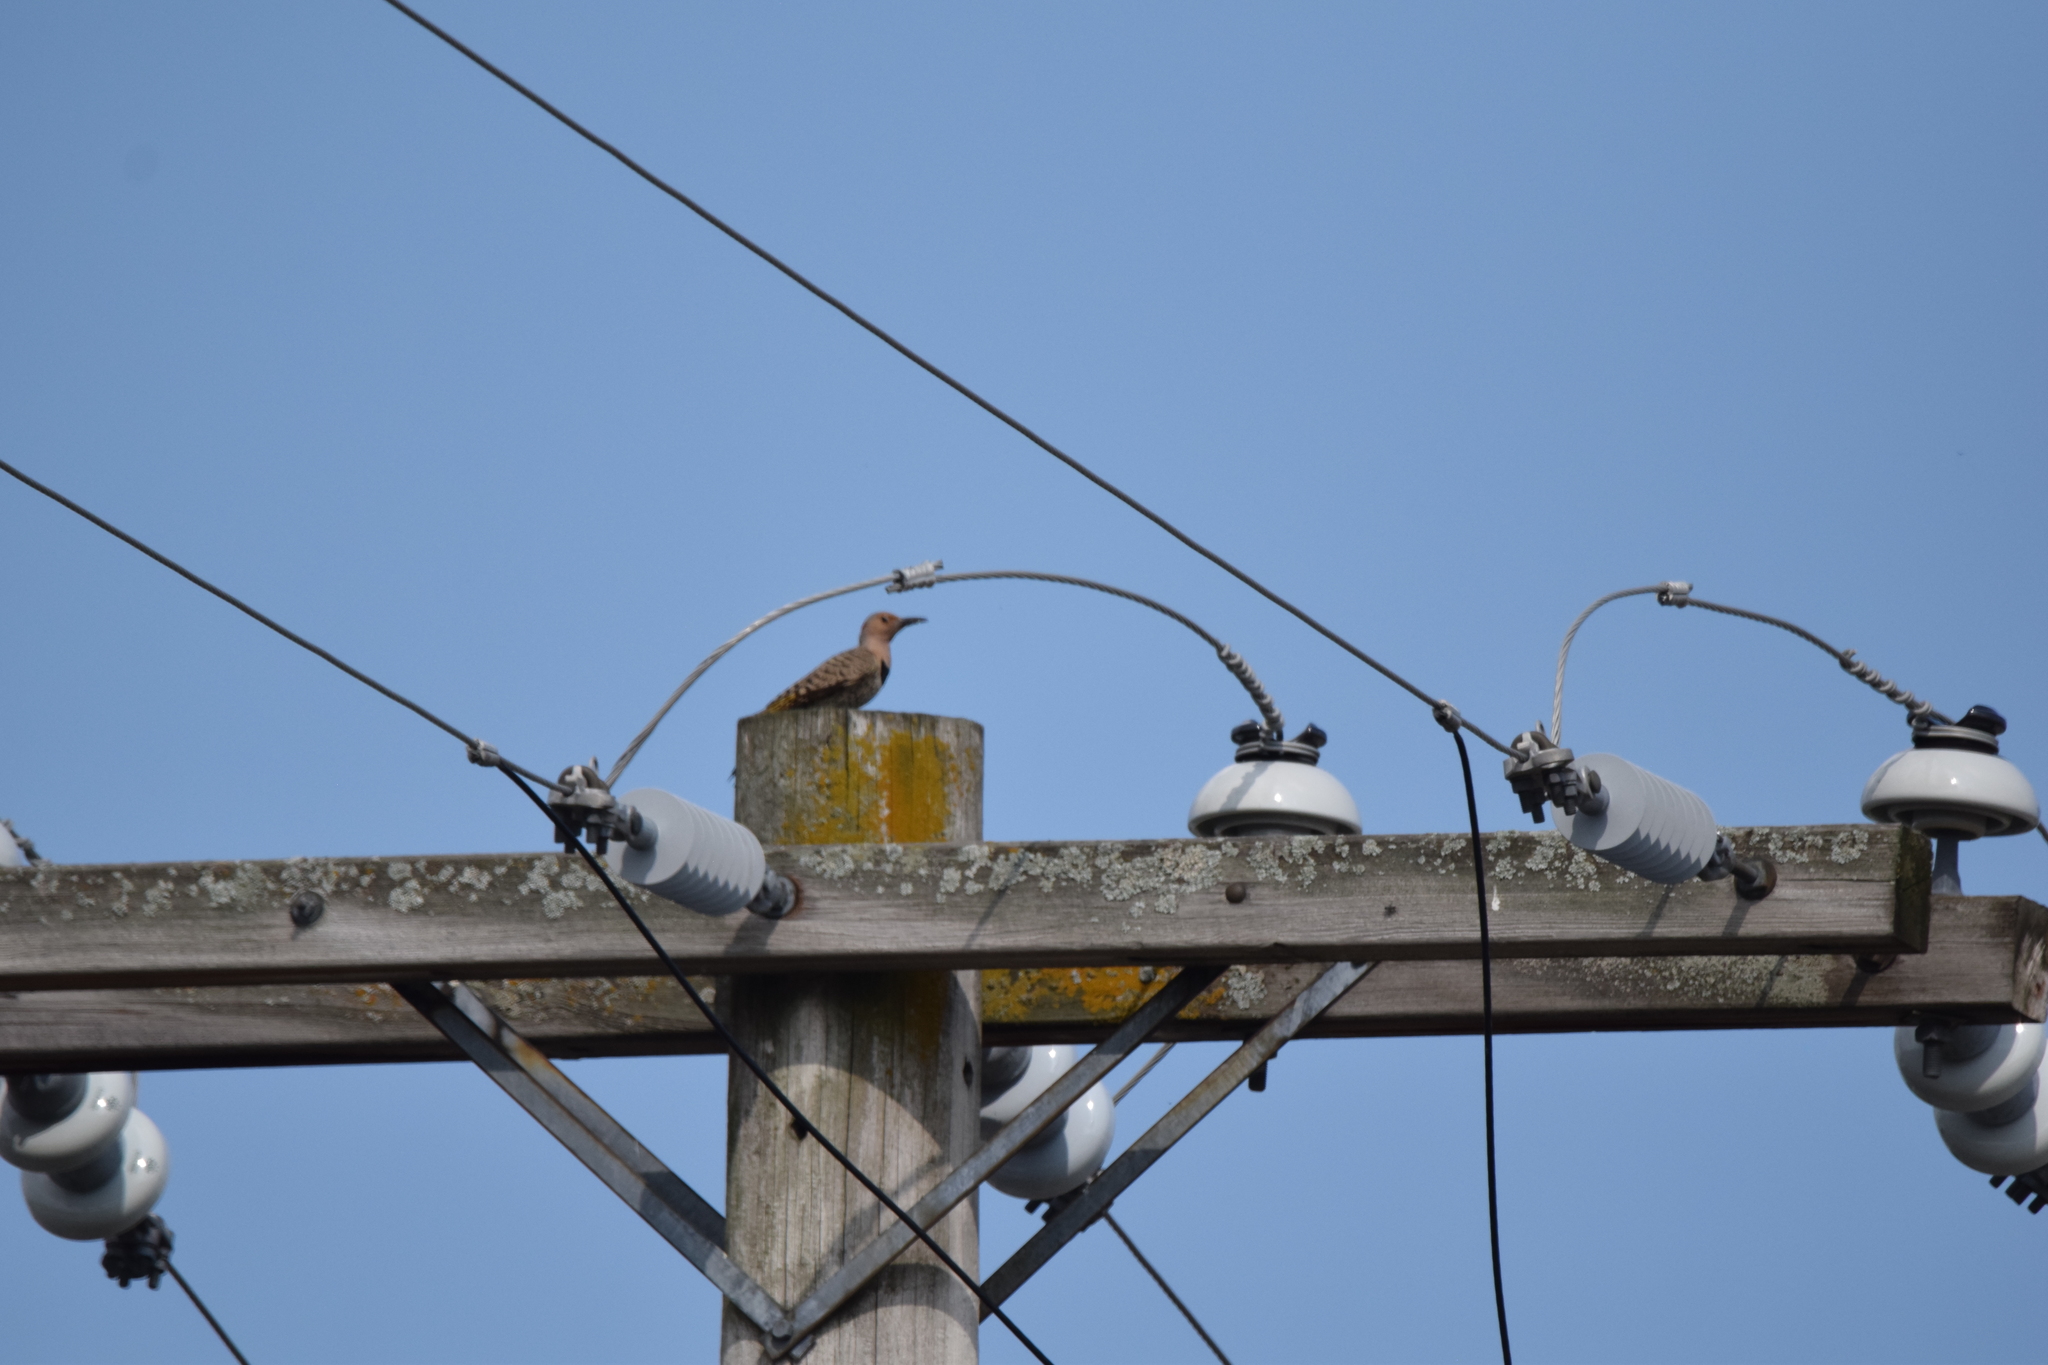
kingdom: Animalia
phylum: Chordata
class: Aves
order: Piciformes
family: Picidae
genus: Colaptes
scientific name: Colaptes auratus
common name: Northern flicker
